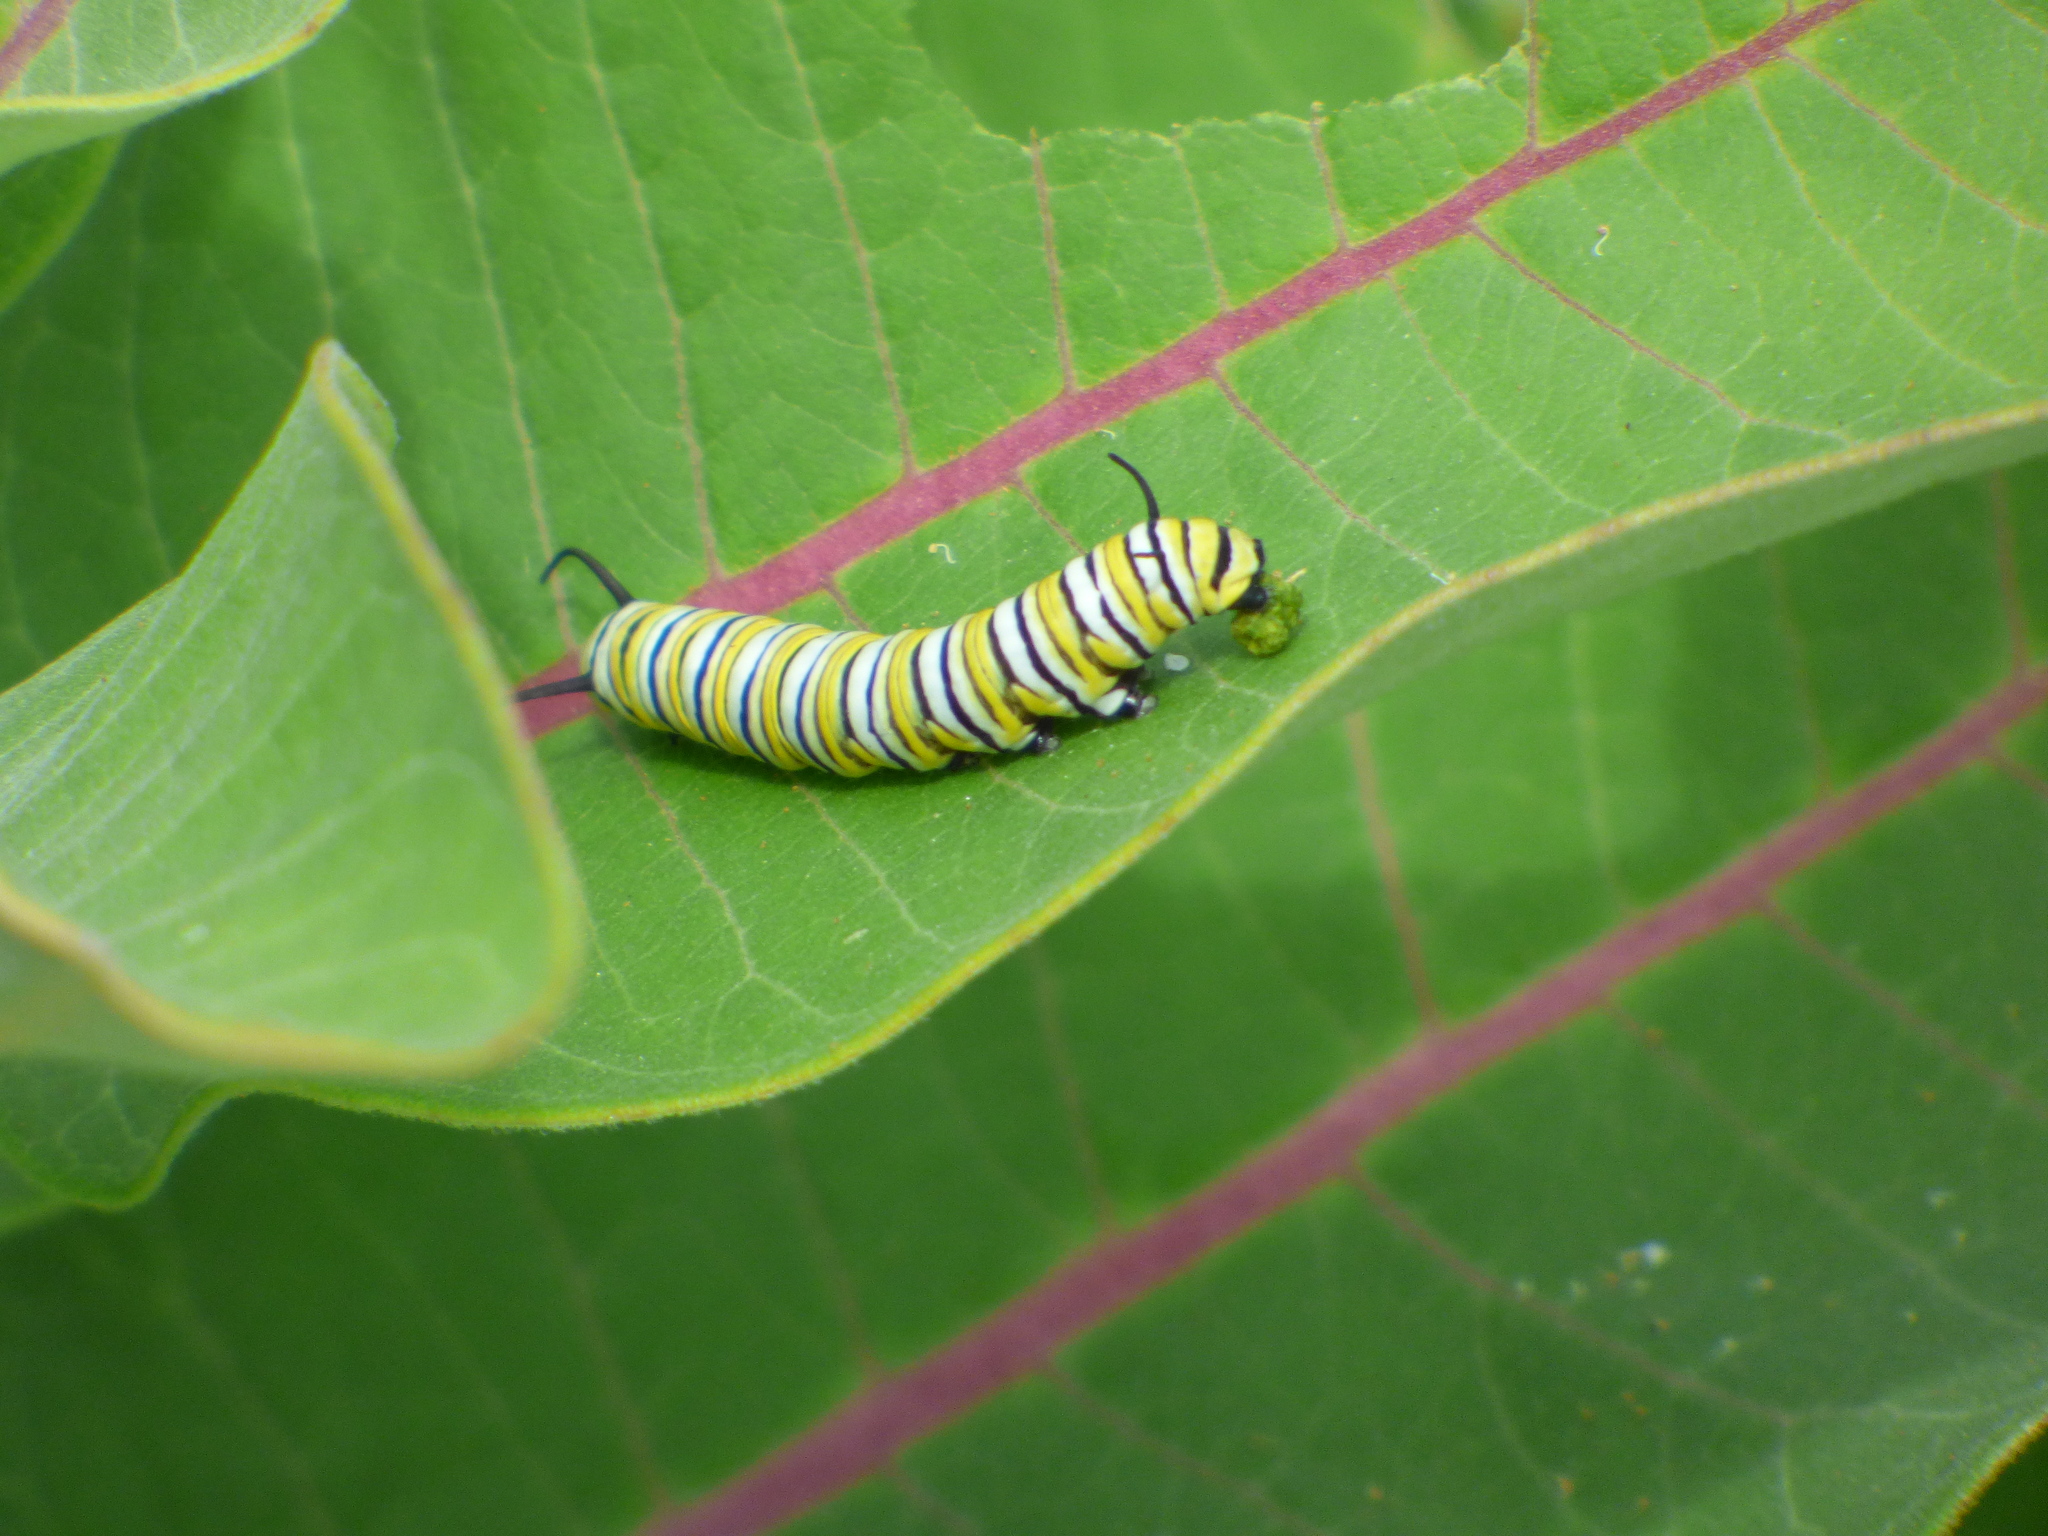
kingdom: Animalia
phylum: Arthropoda
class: Insecta
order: Lepidoptera
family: Nymphalidae
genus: Danaus
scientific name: Danaus plexippus
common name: Monarch
